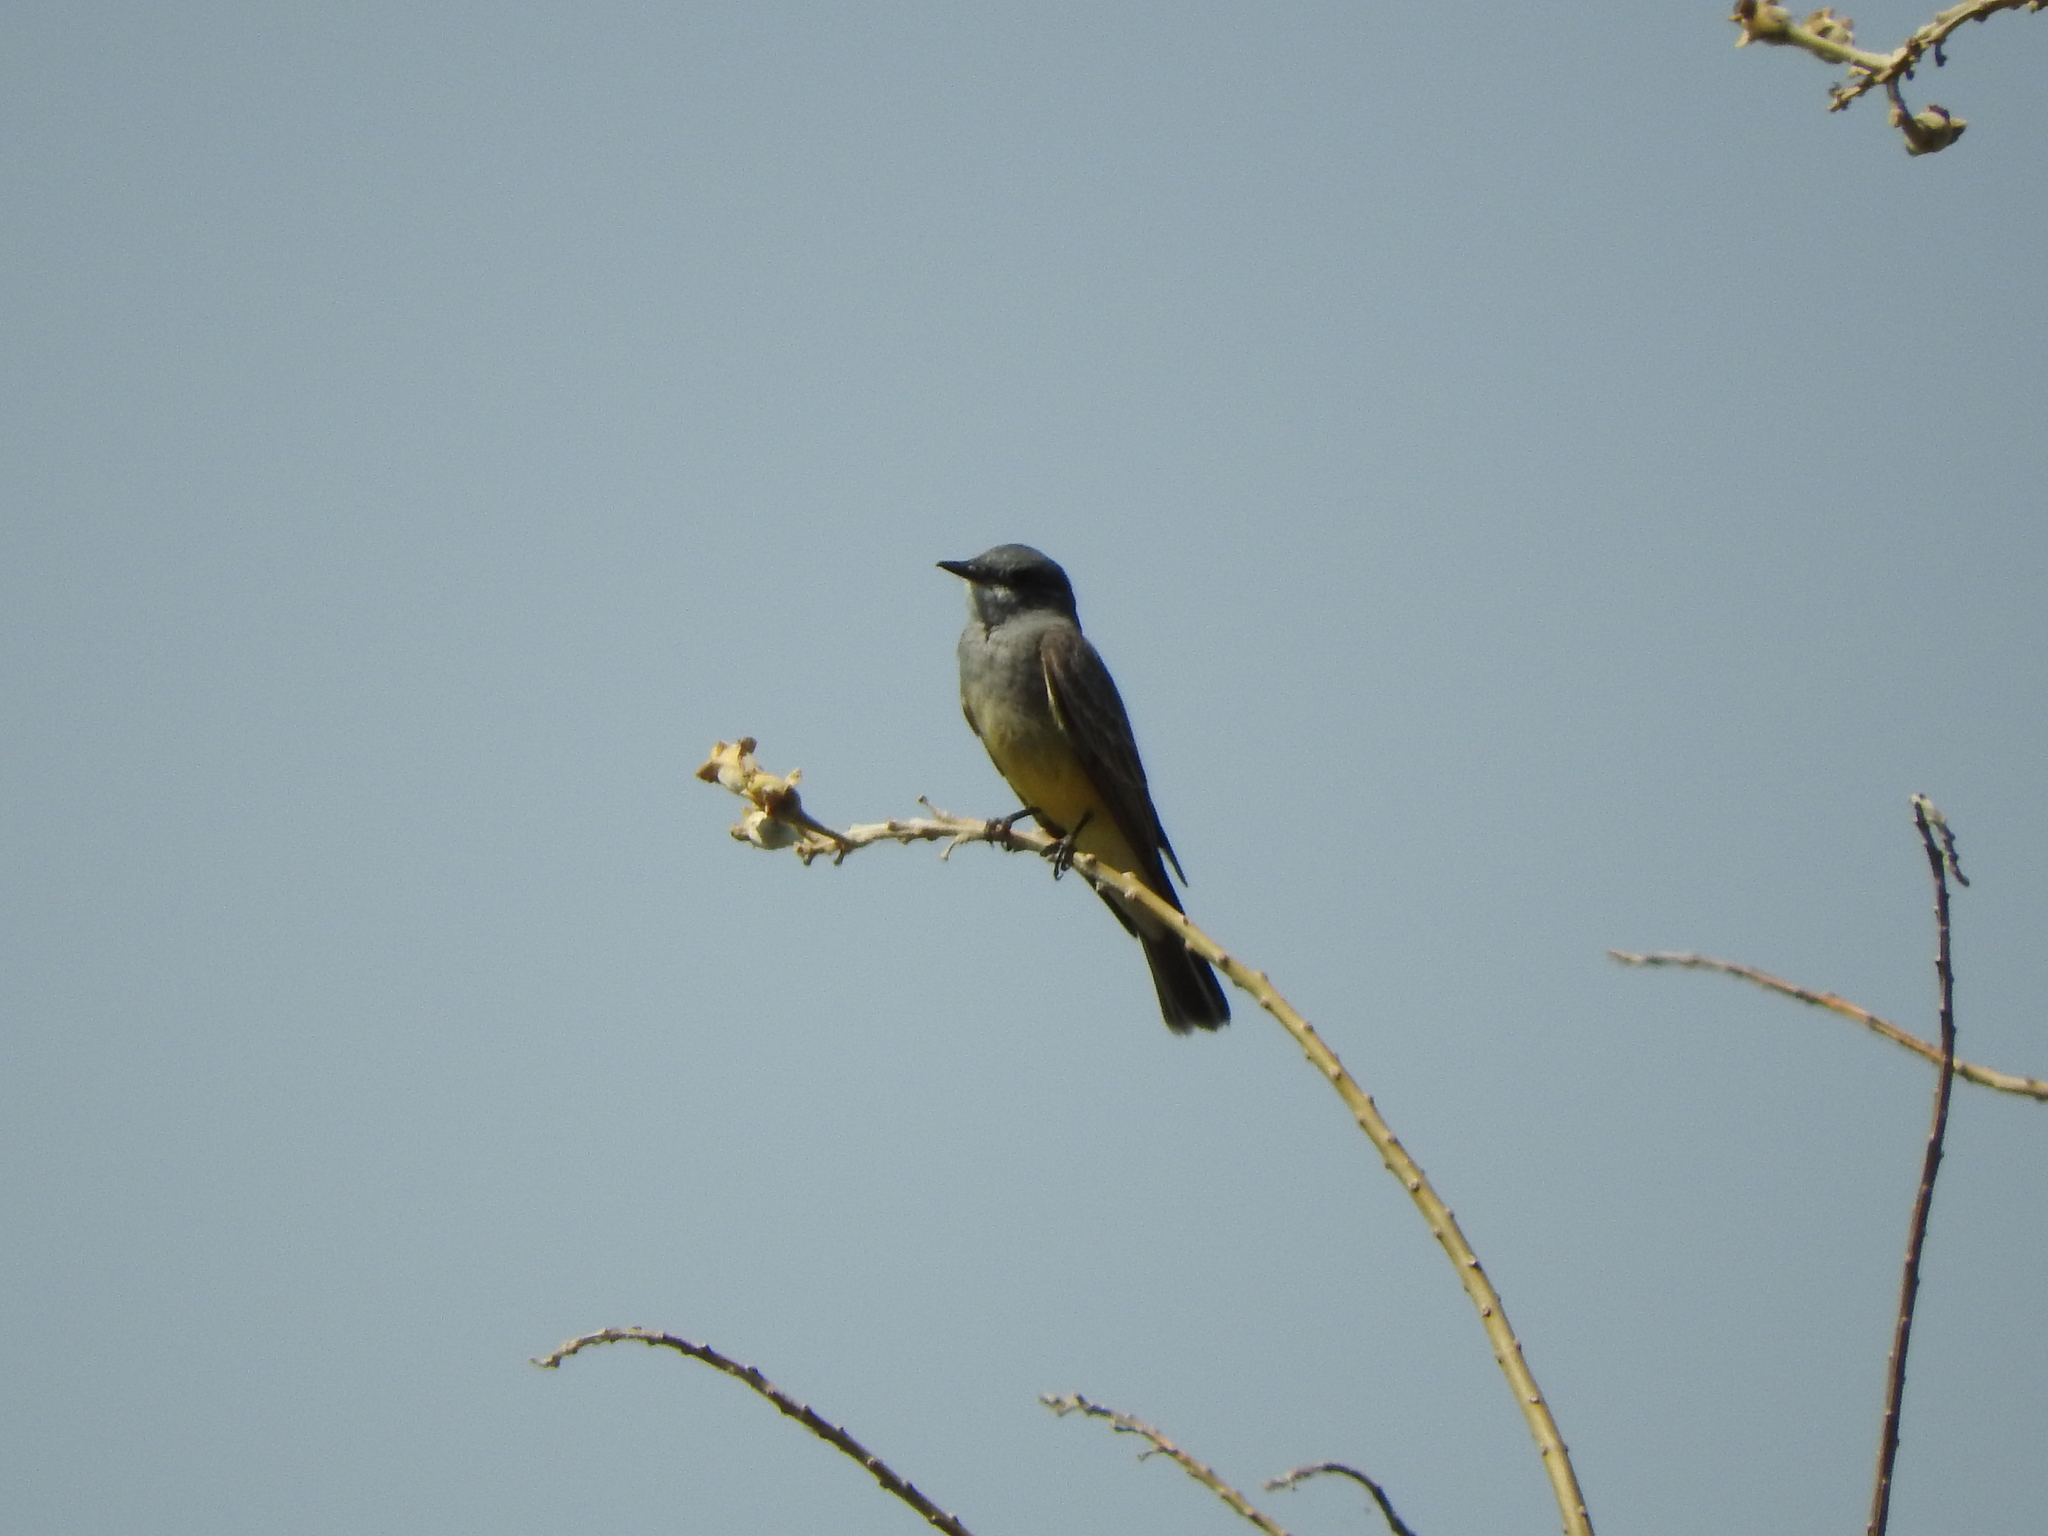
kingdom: Animalia
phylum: Chordata
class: Aves
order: Passeriformes
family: Tyrannidae
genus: Tyrannus
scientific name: Tyrannus vociferans
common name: Cassin's kingbird
